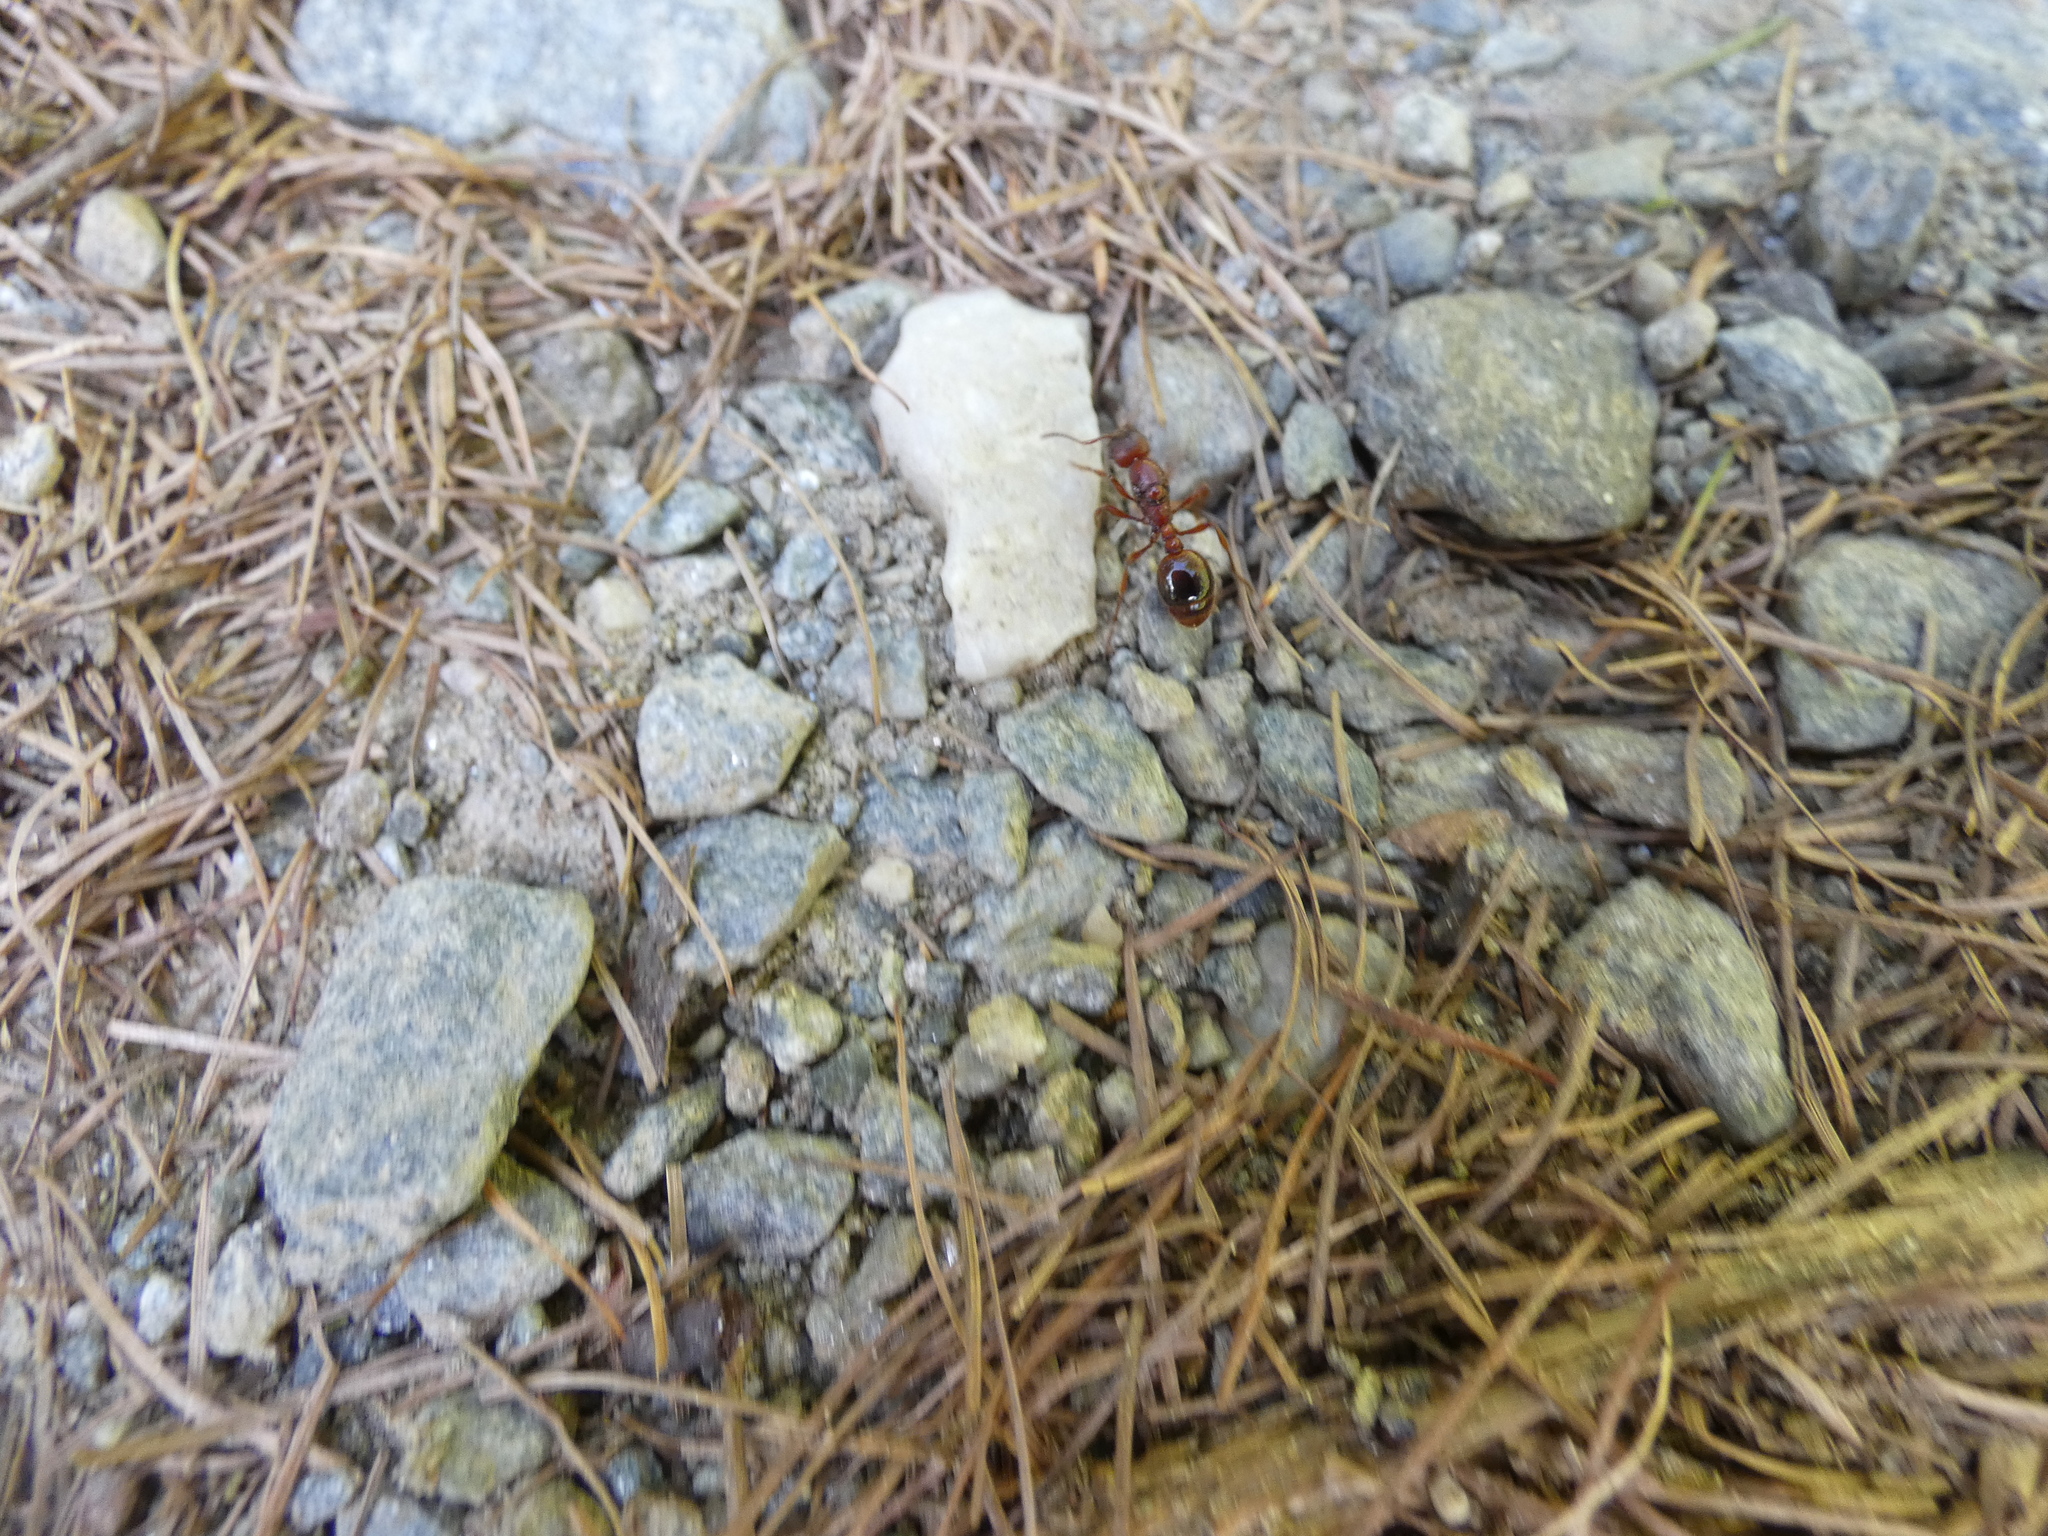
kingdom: Animalia
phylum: Arthropoda
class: Insecta
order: Hymenoptera
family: Formicidae
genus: Manica
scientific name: Manica rubida
